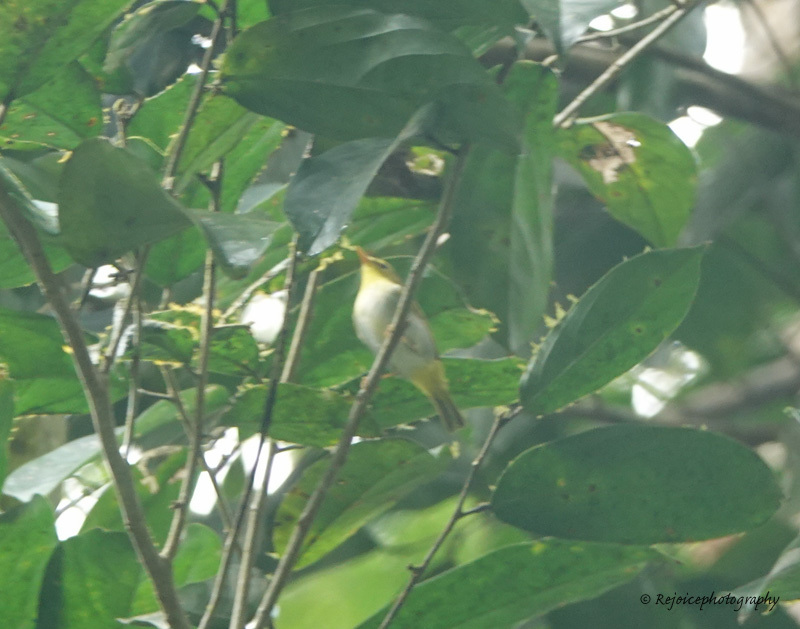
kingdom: Animalia
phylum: Chordata
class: Aves
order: Passeriformes
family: Phylloscopidae
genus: Phylloscopus
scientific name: Phylloscopus cantator
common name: Yellow-vented warbler
